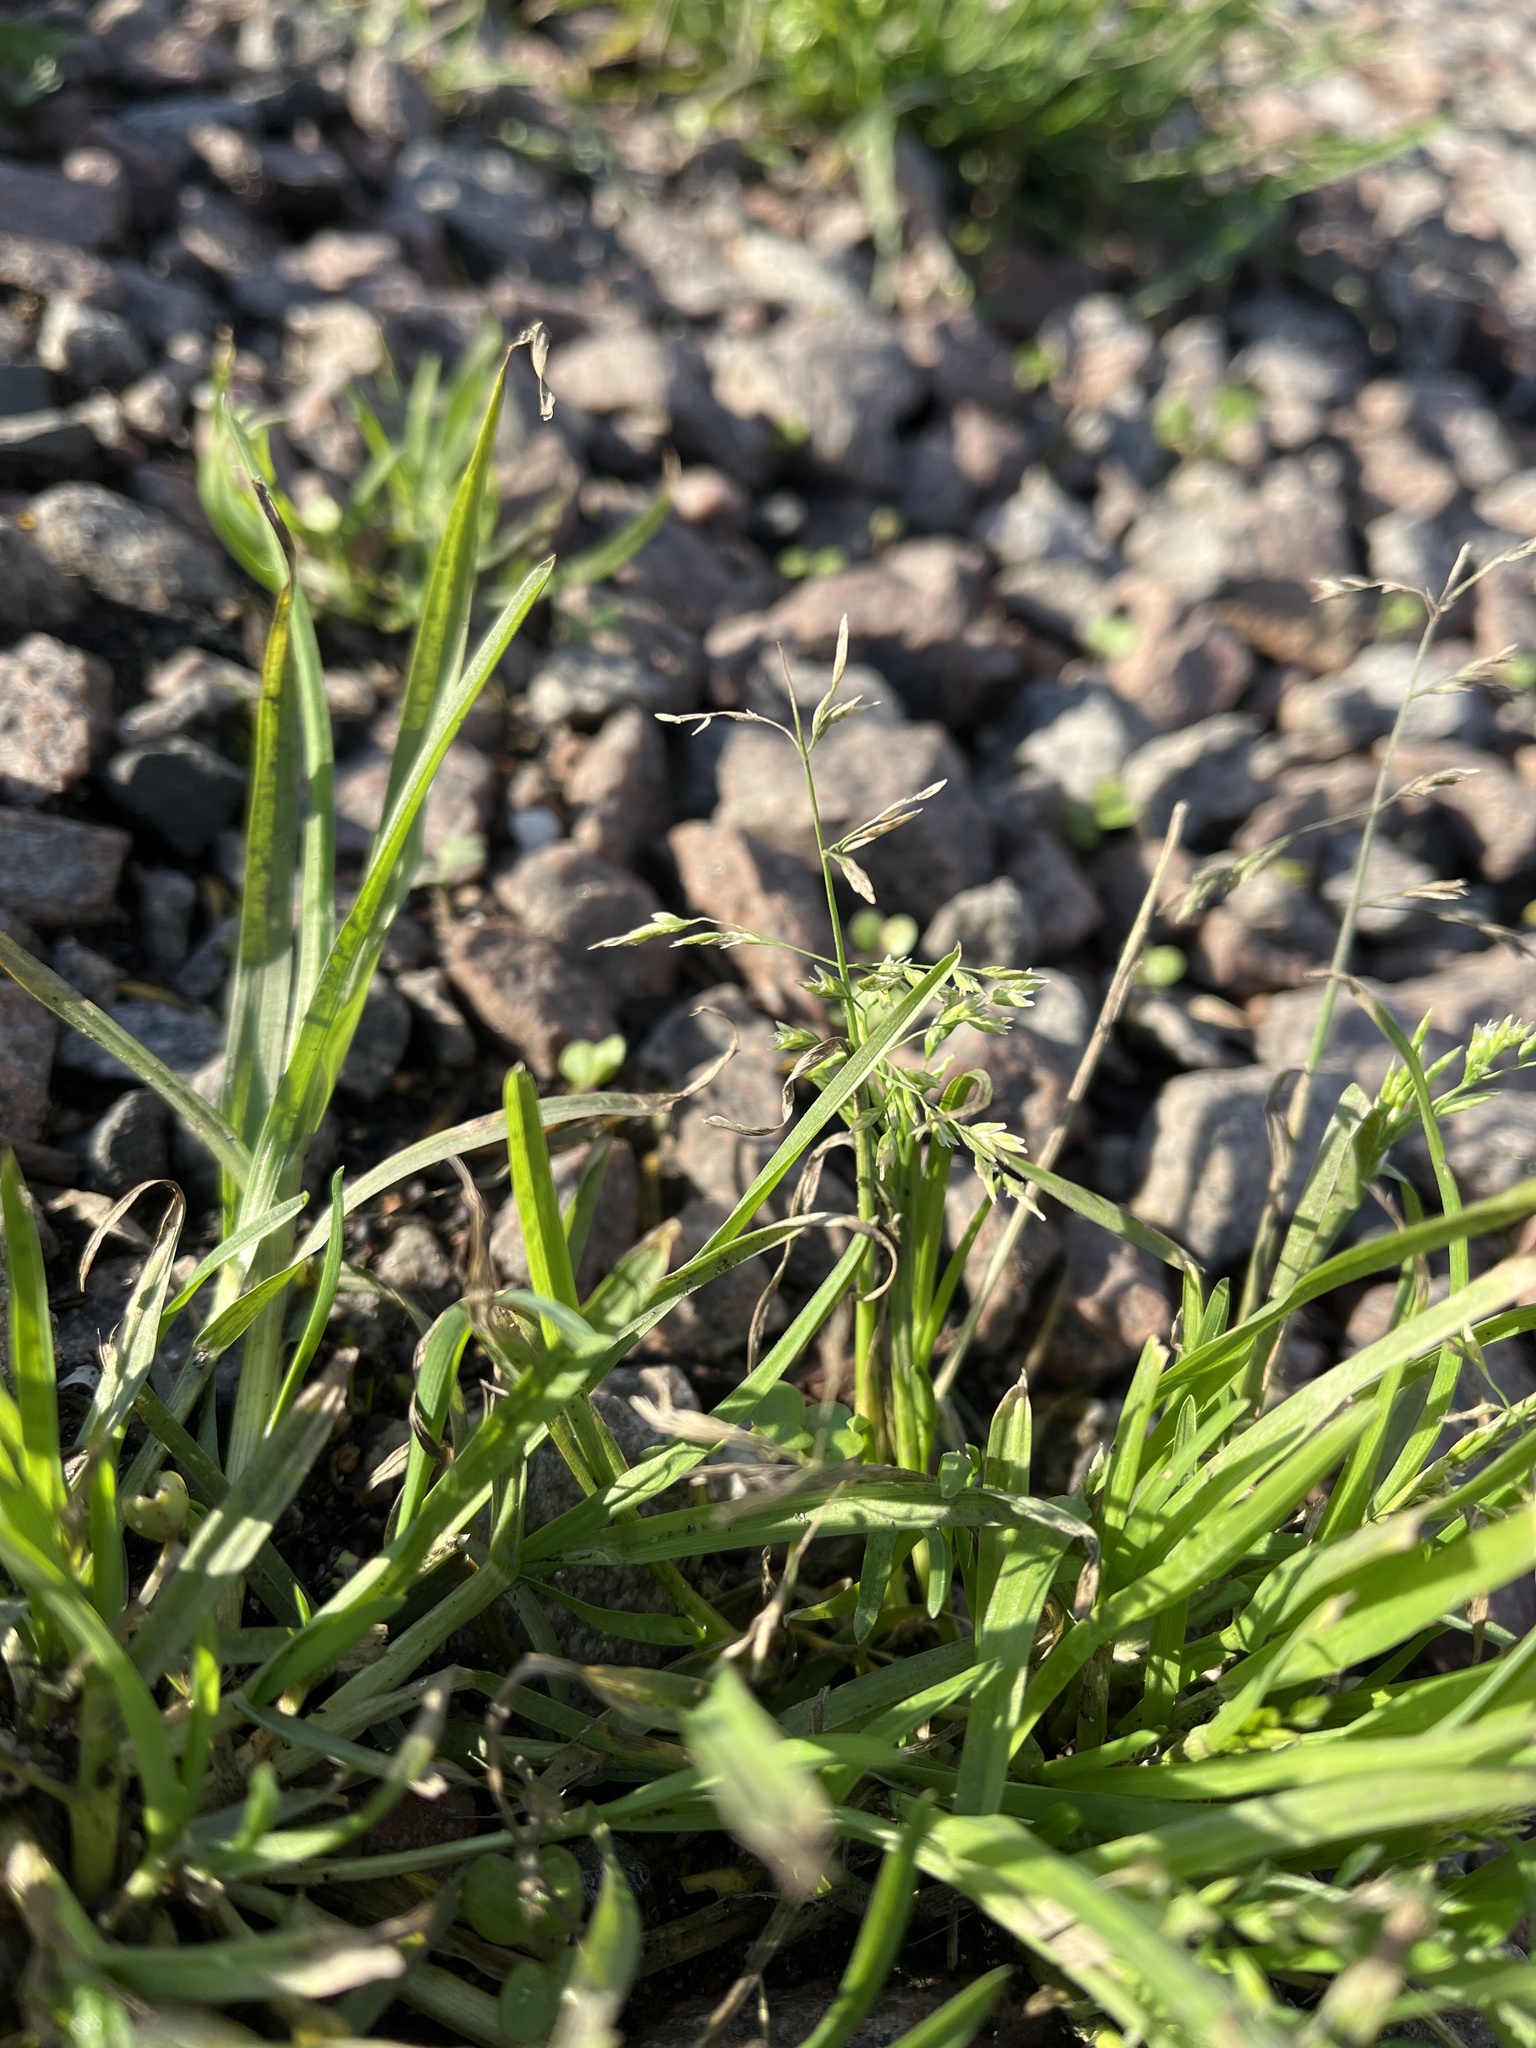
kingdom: Plantae
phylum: Tracheophyta
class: Liliopsida
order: Poales
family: Poaceae
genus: Poa
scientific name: Poa annua
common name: Annual bluegrass
